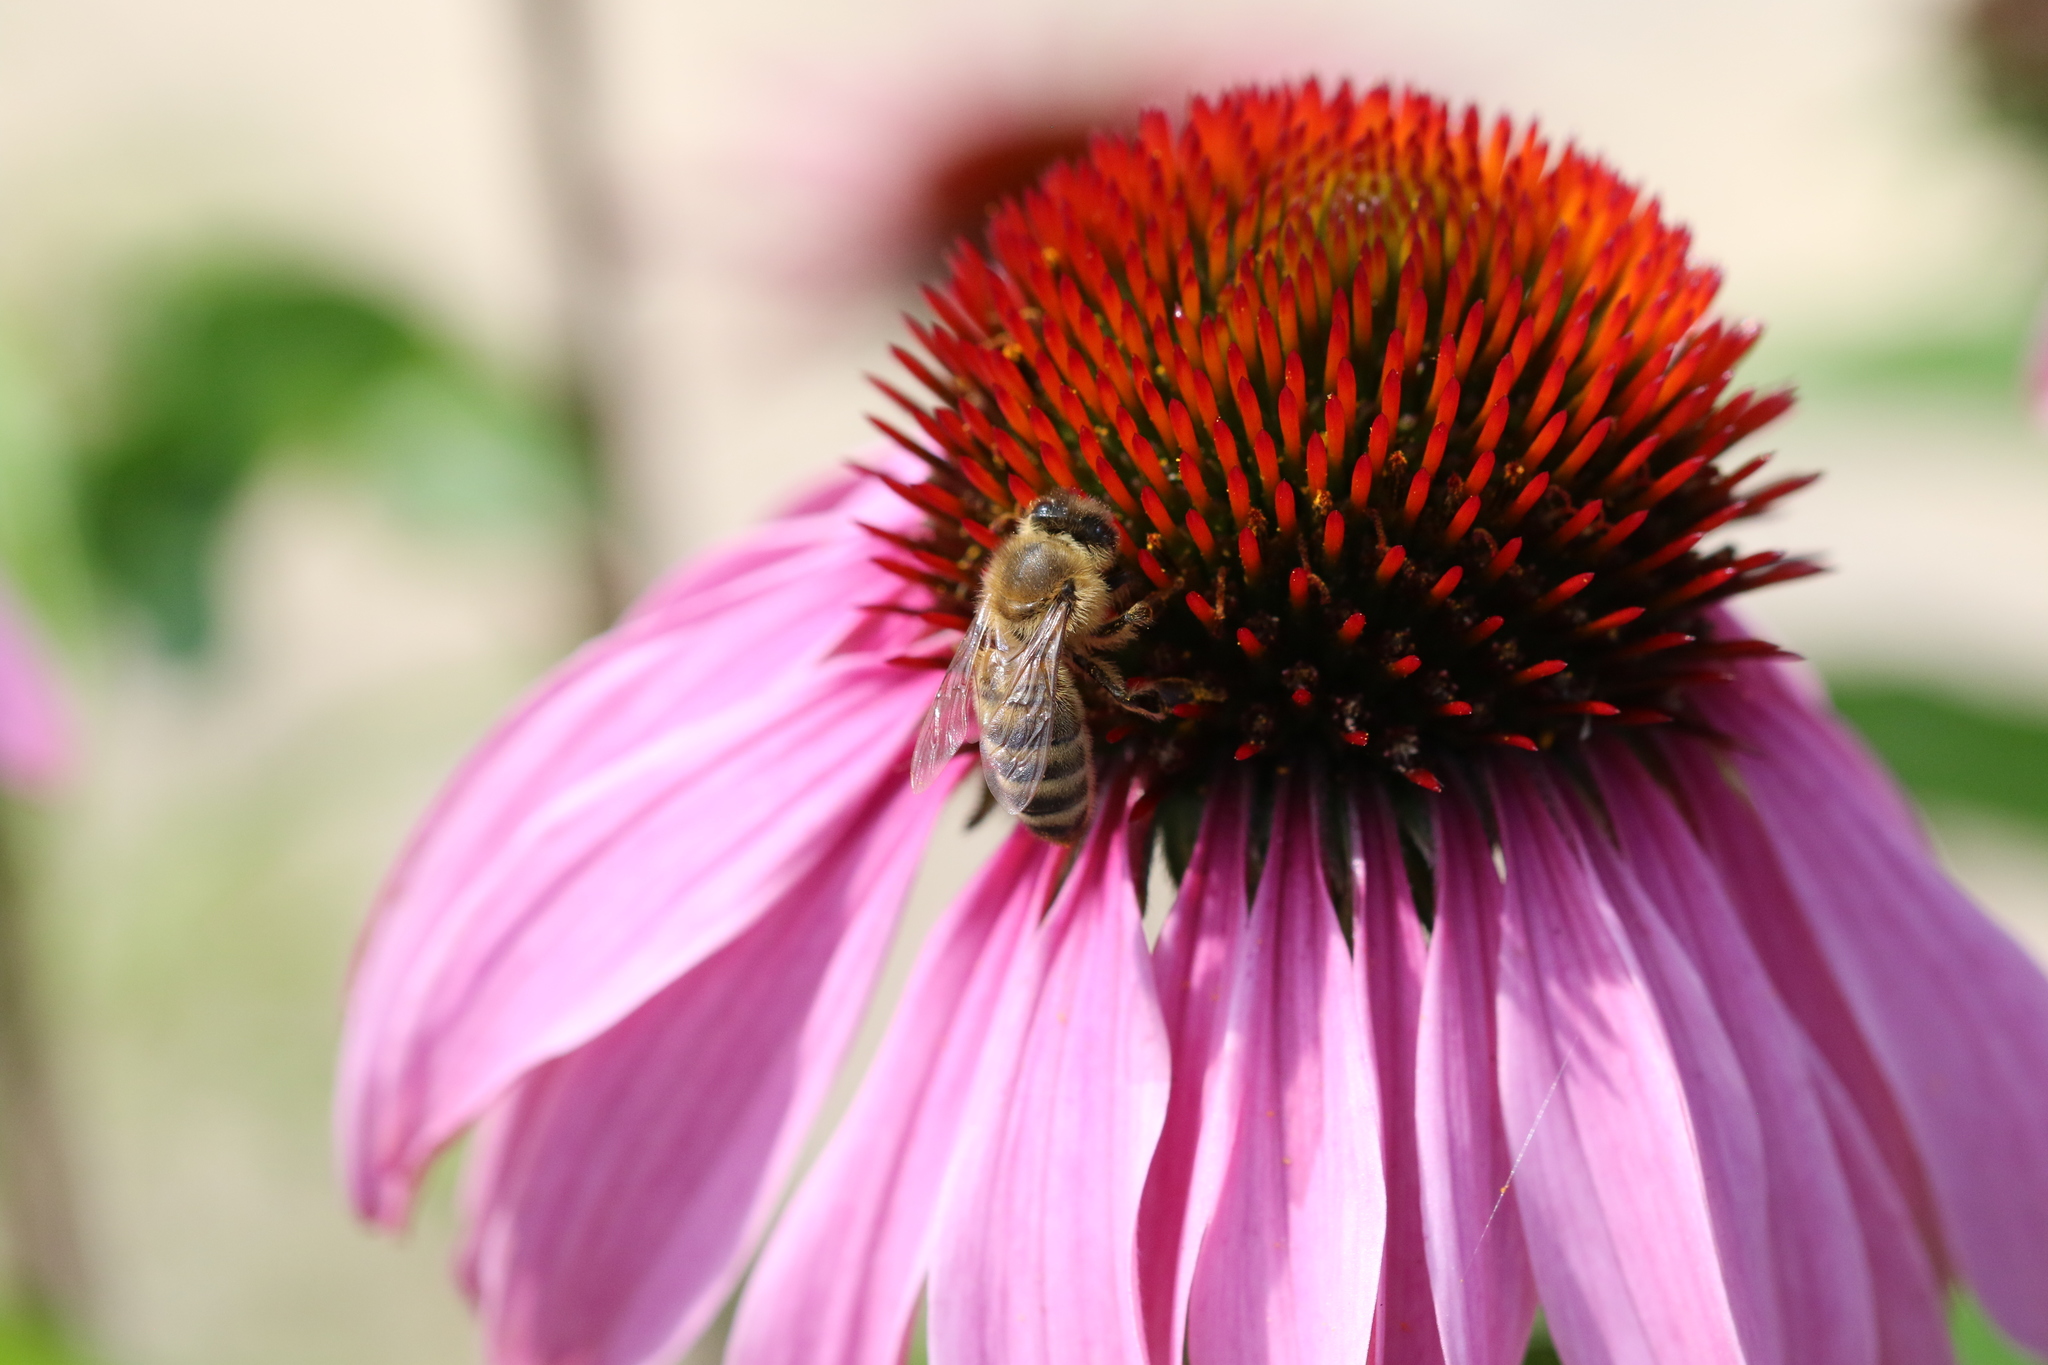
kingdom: Animalia
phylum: Arthropoda
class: Insecta
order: Hymenoptera
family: Apidae
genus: Apis
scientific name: Apis mellifera
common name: Honey bee
